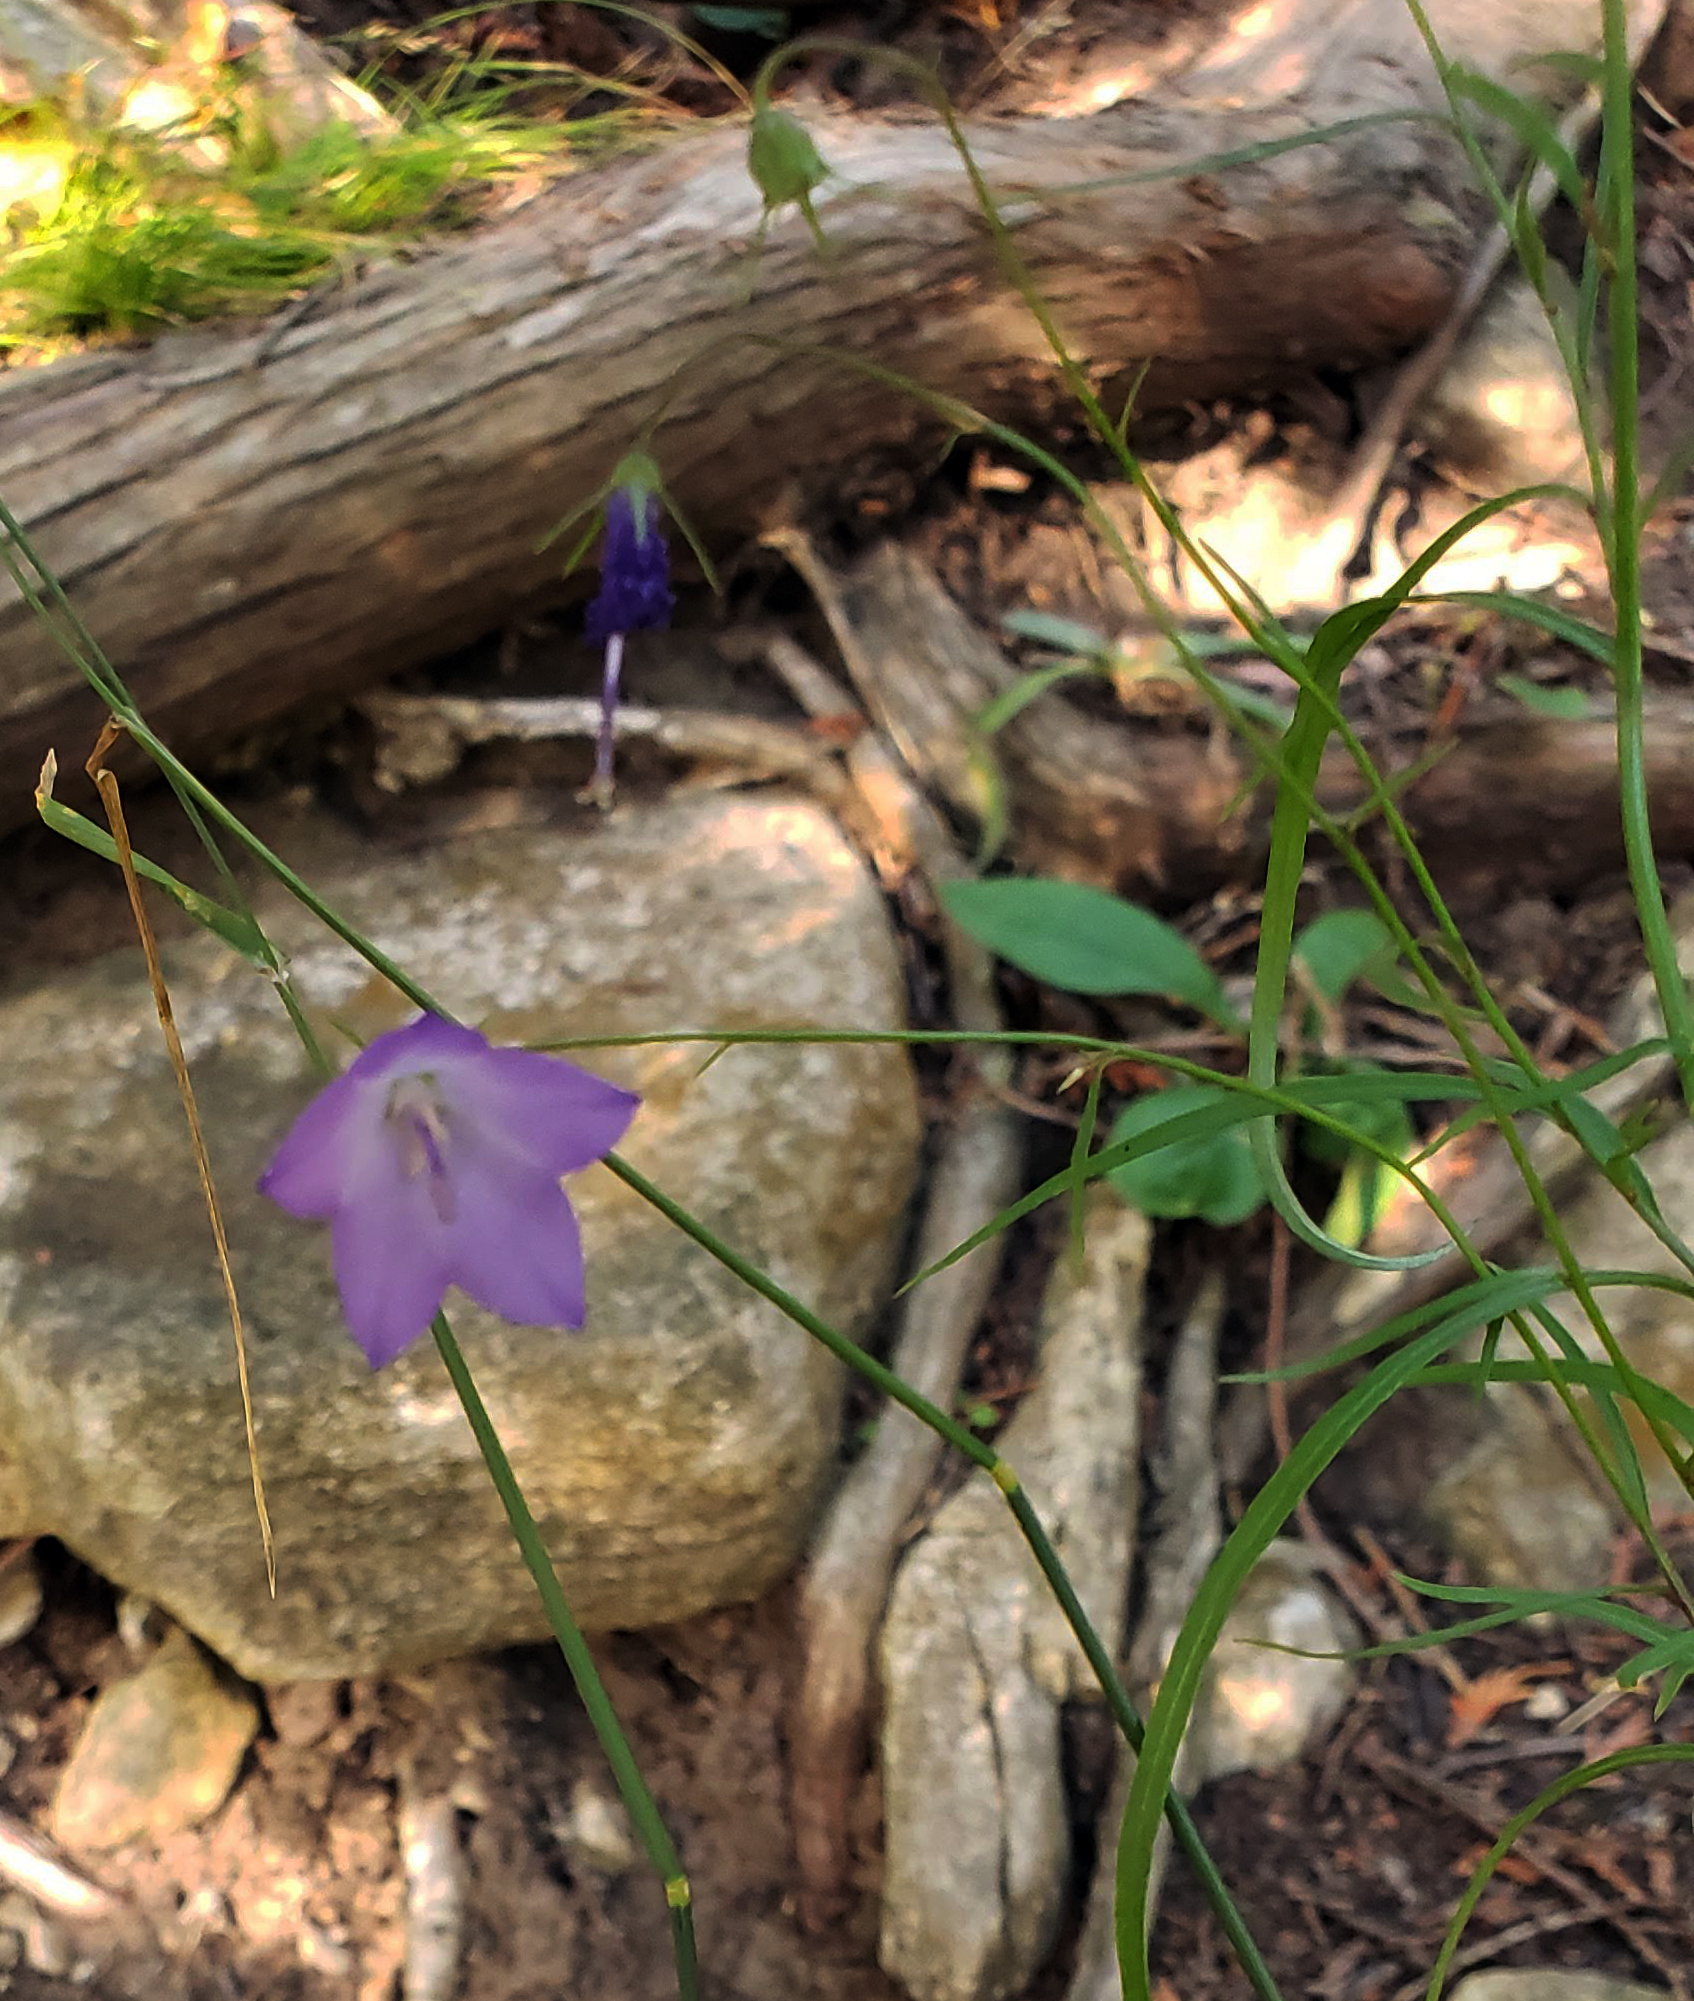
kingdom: Plantae
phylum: Tracheophyta
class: Magnoliopsida
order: Asterales
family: Campanulaceae
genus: Campanula
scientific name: Campanula intercedens
